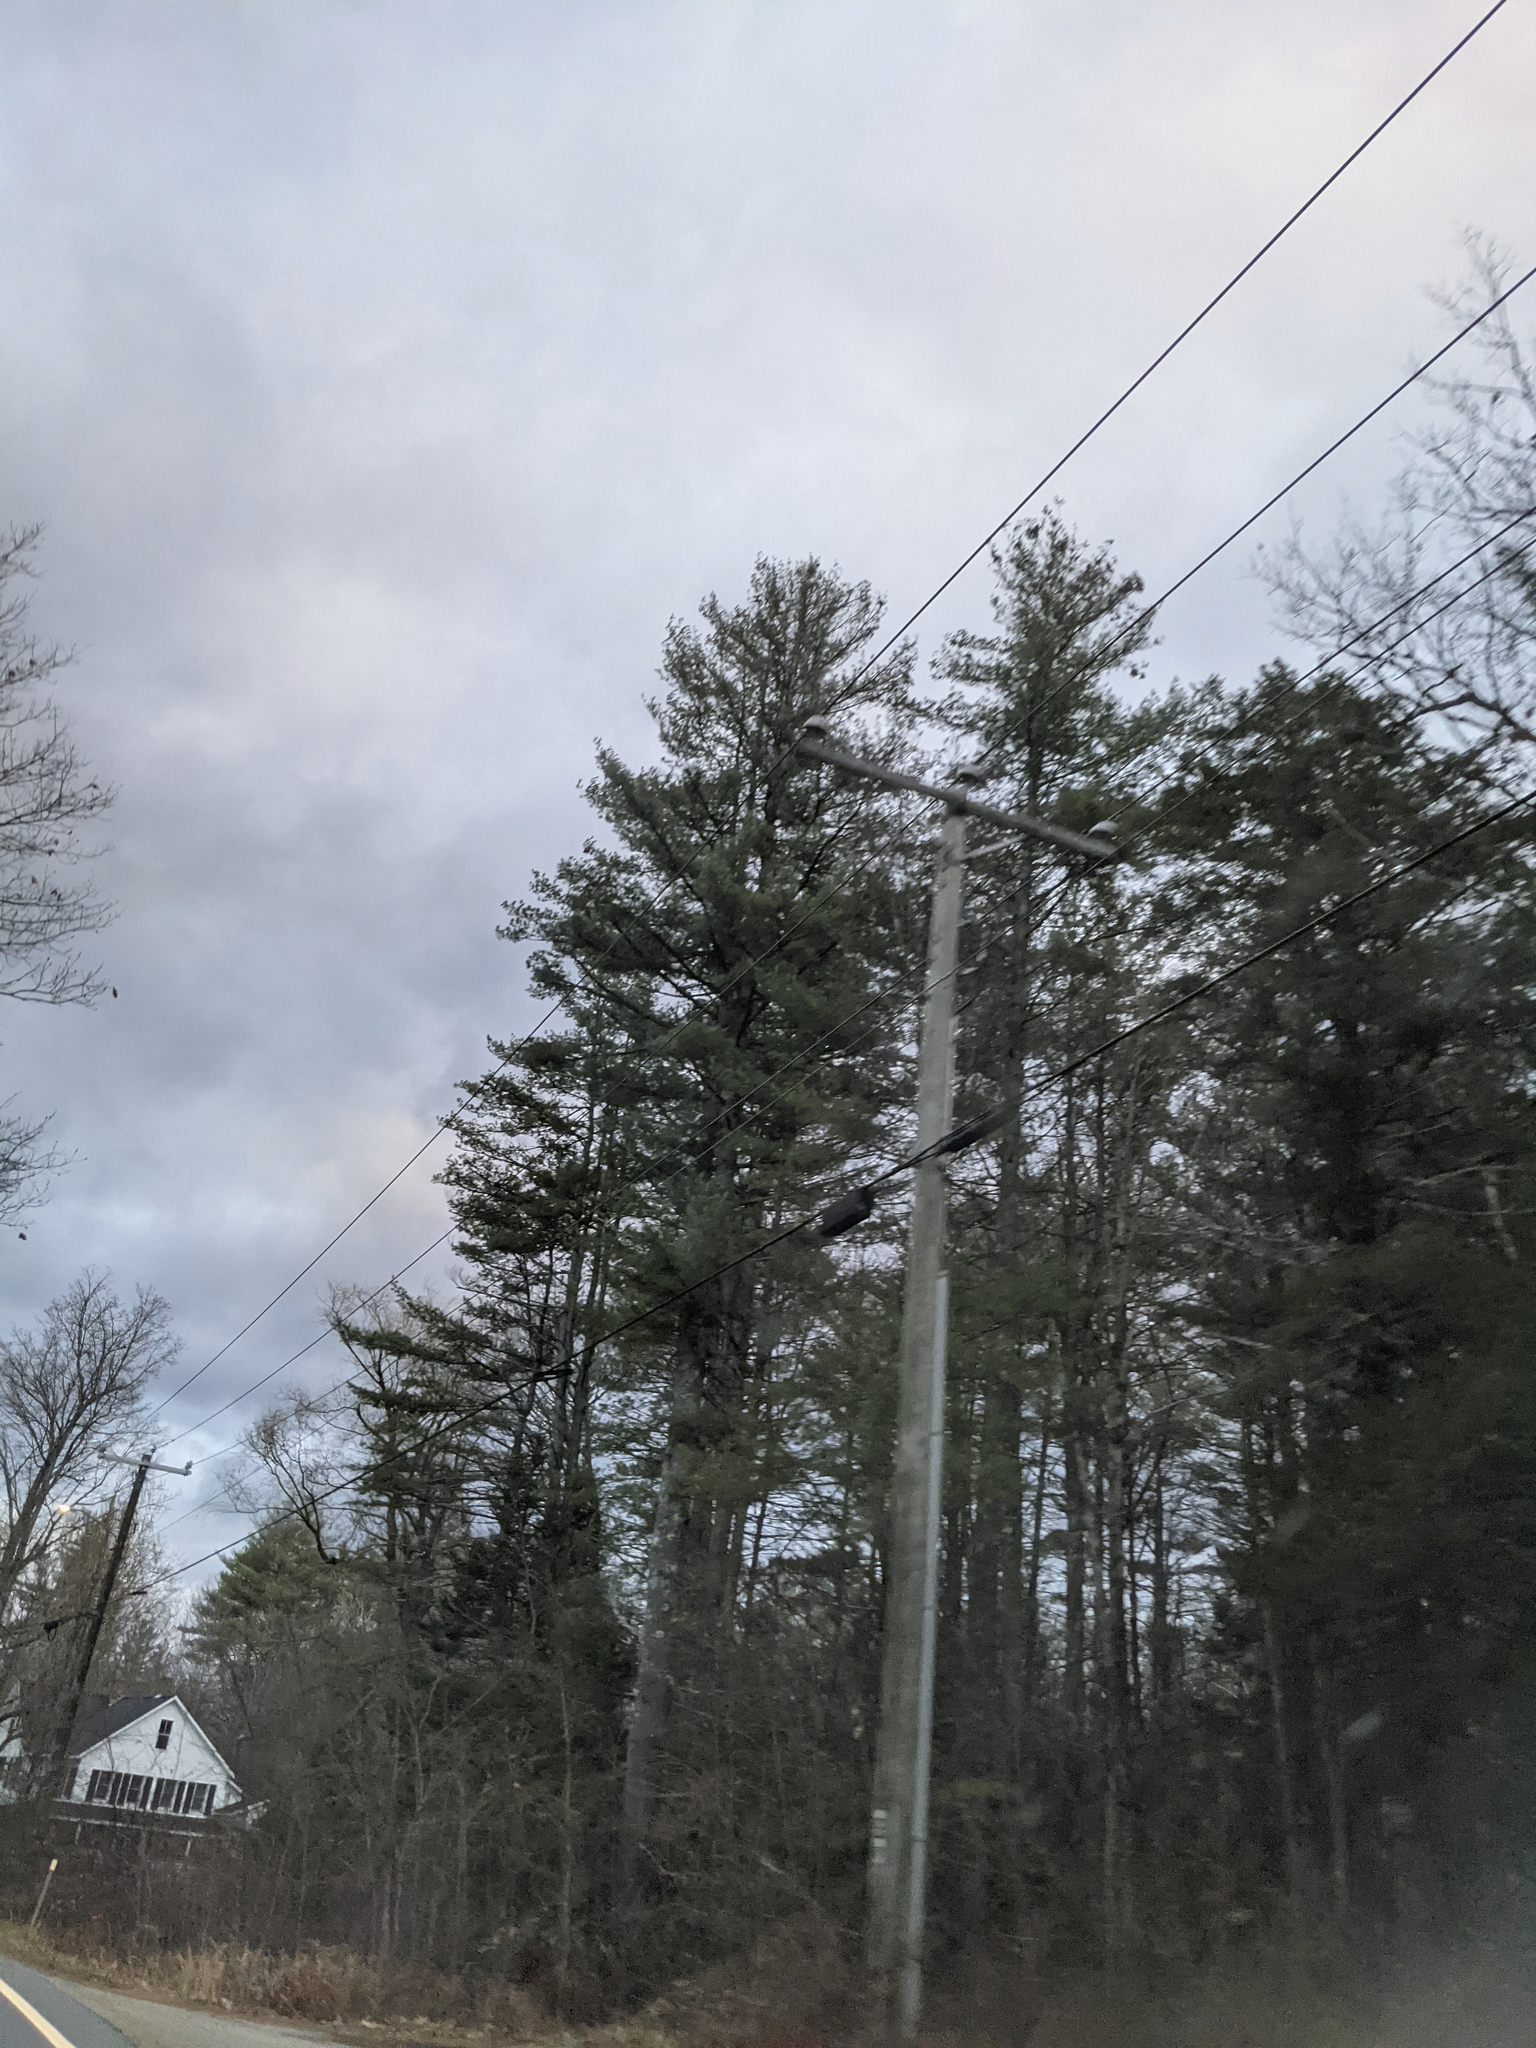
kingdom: Plantae
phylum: Tracheophyta
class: Pinopsida
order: Pinales
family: Pinaceae
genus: Pinus
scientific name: Pinus strobus
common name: Weymouth pine
